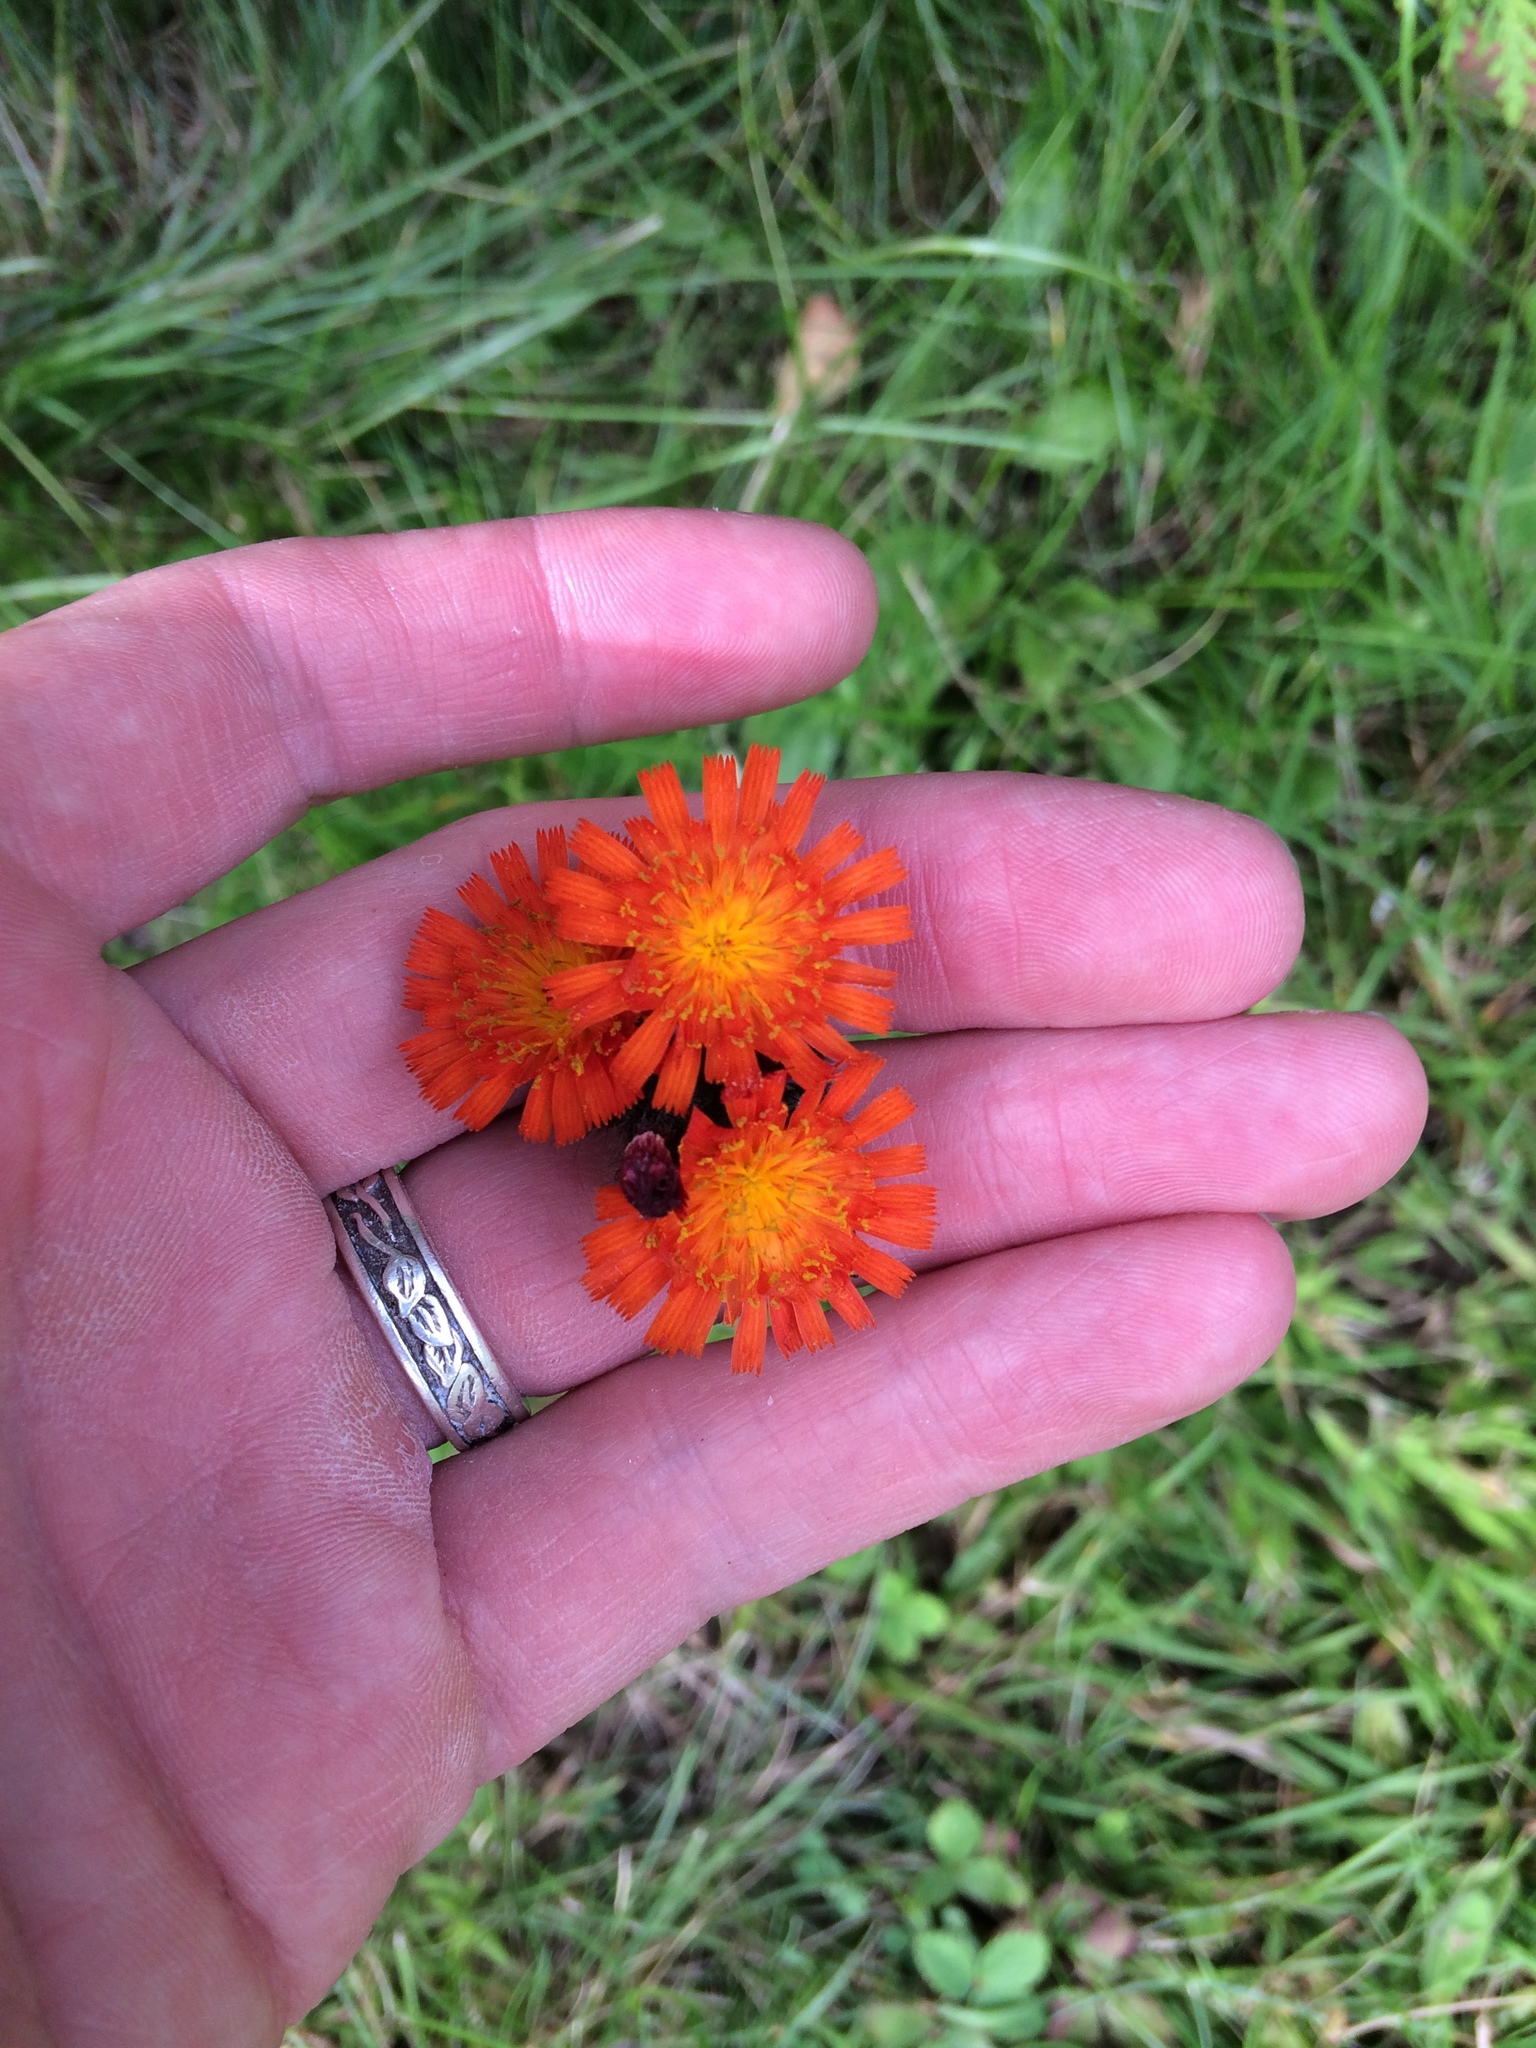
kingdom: Plantae
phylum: Tracheophyta
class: Magnoliopsida
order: Asterales
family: Asteraceae
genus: Pilosella
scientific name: Pilosella aurantiaca
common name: Fox-and-cubs
